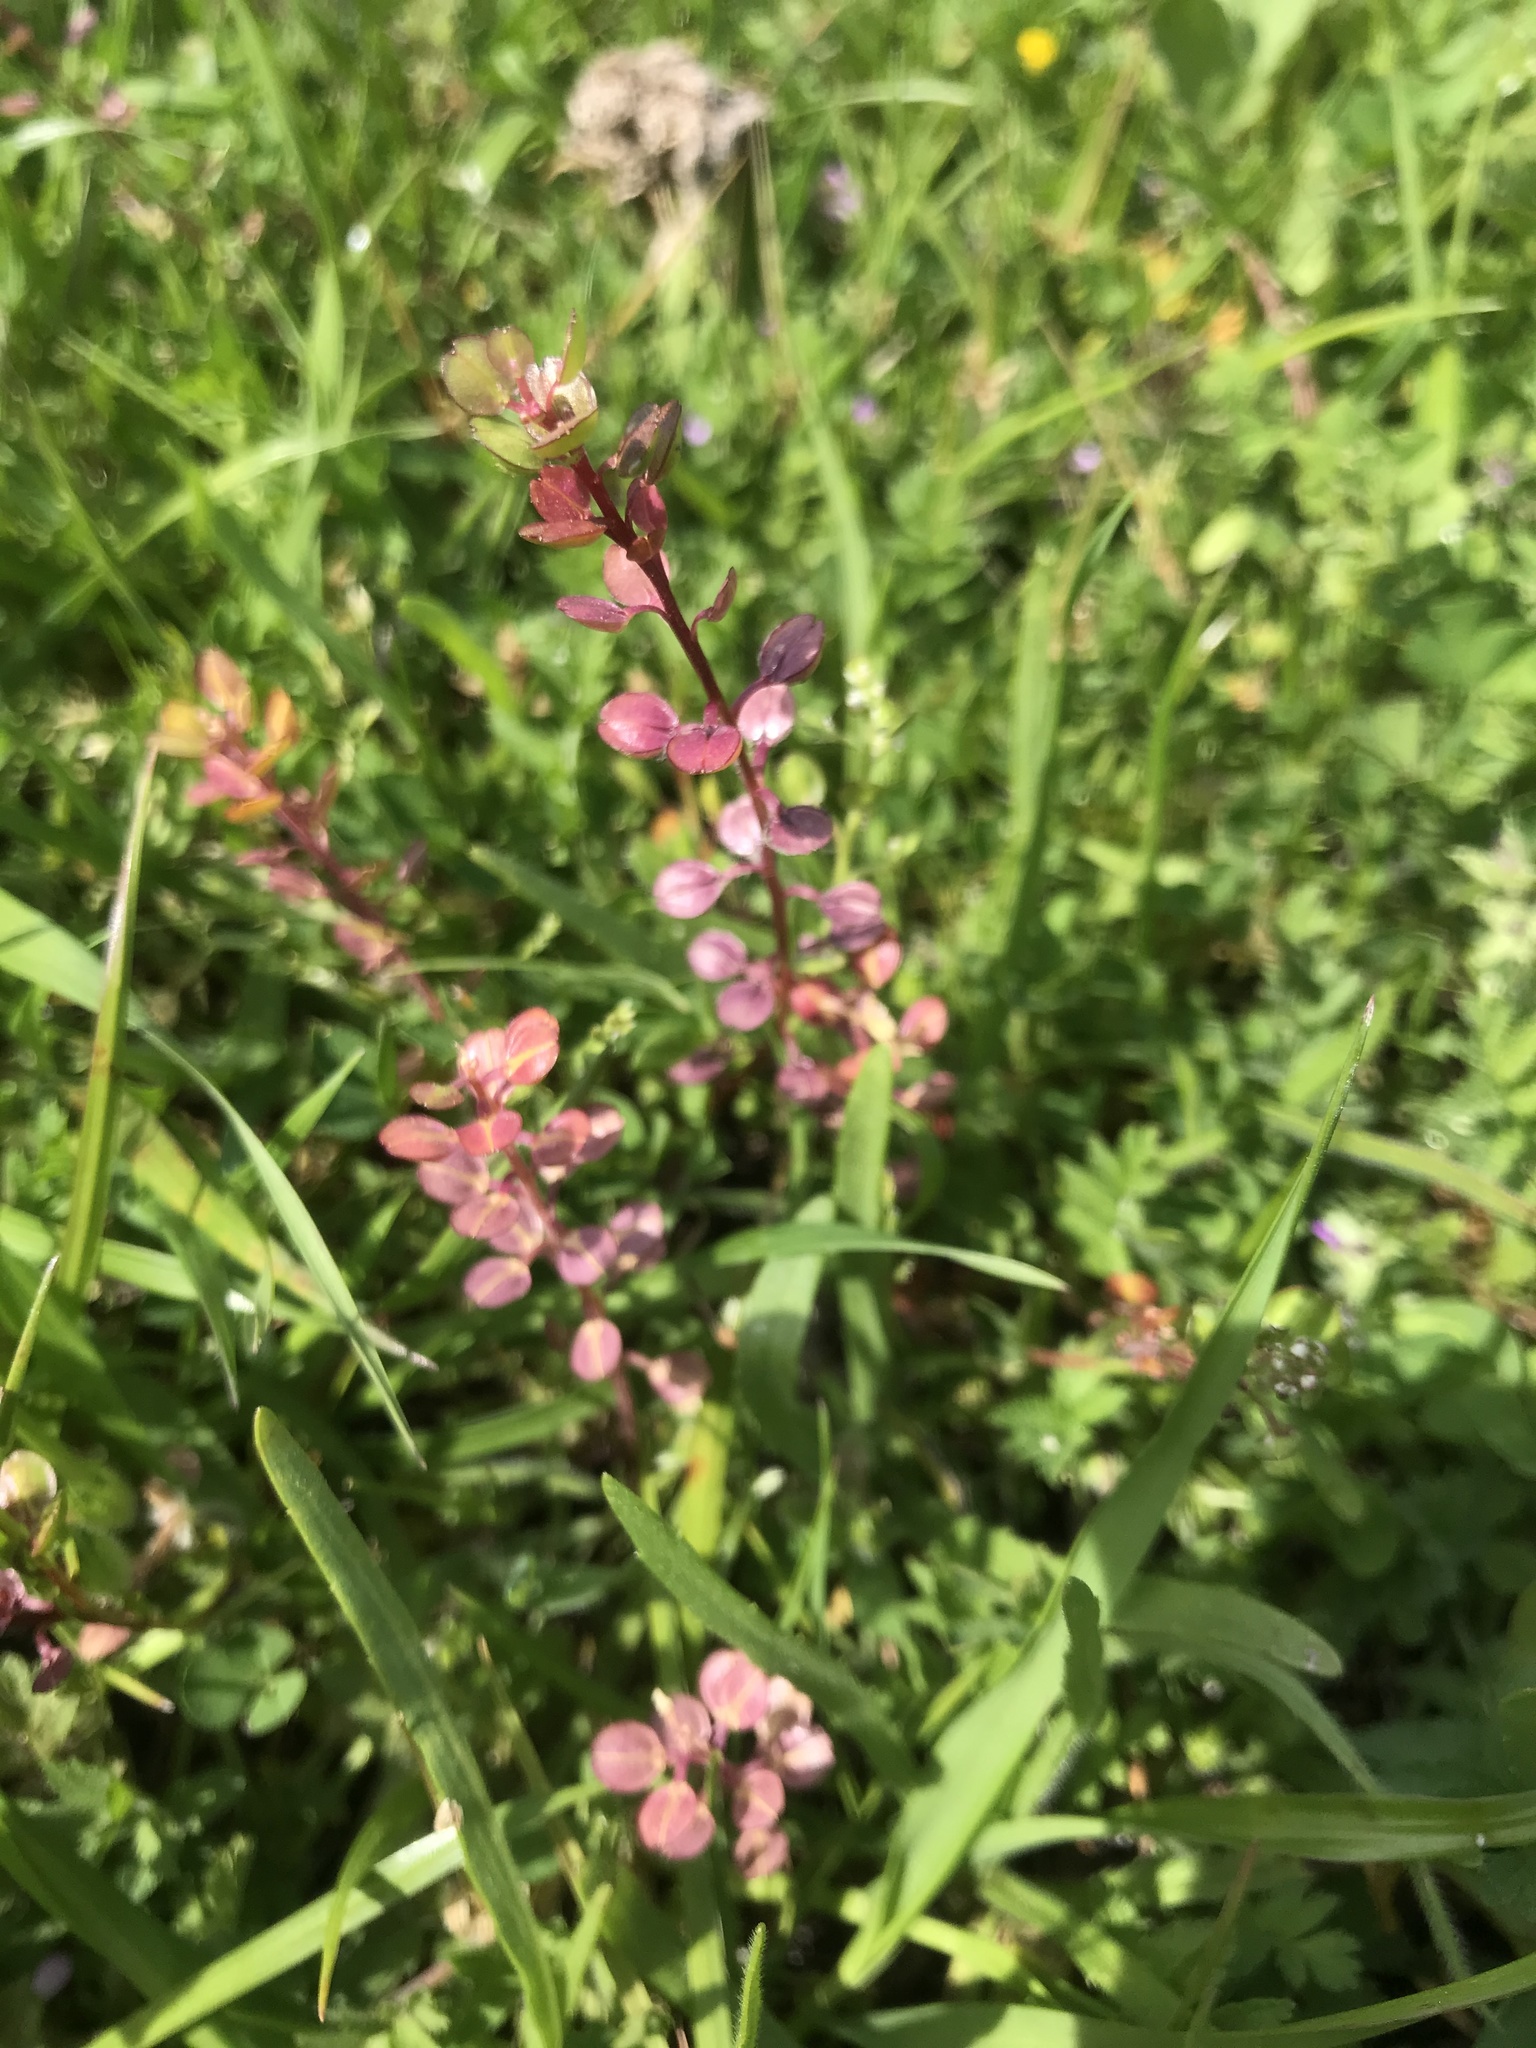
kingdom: Plantae
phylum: Tracheophyta
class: Magnoliopsida
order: Brassicales
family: Brassicaceae
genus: Lepidium
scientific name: Lepidium nitidum
